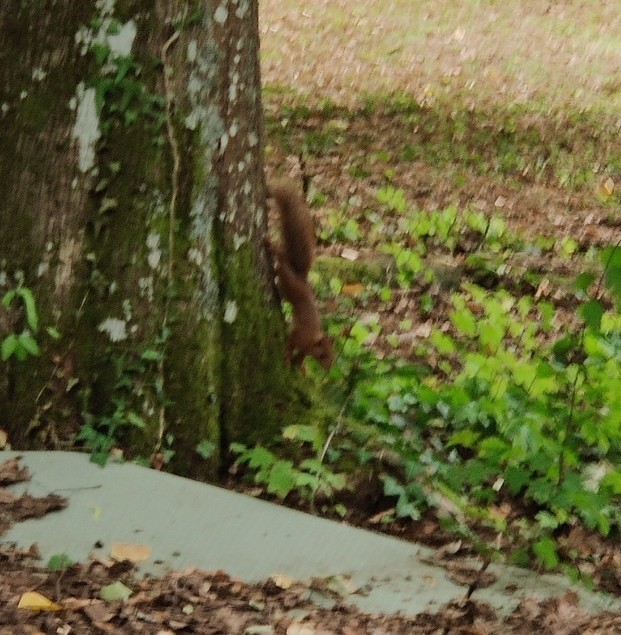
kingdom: Animalia
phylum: Chordata
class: Mammalia
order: Rodentia
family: Sciuridae
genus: Sciurus
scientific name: Sciurus vulgaris
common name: Eurasian red squirrel
